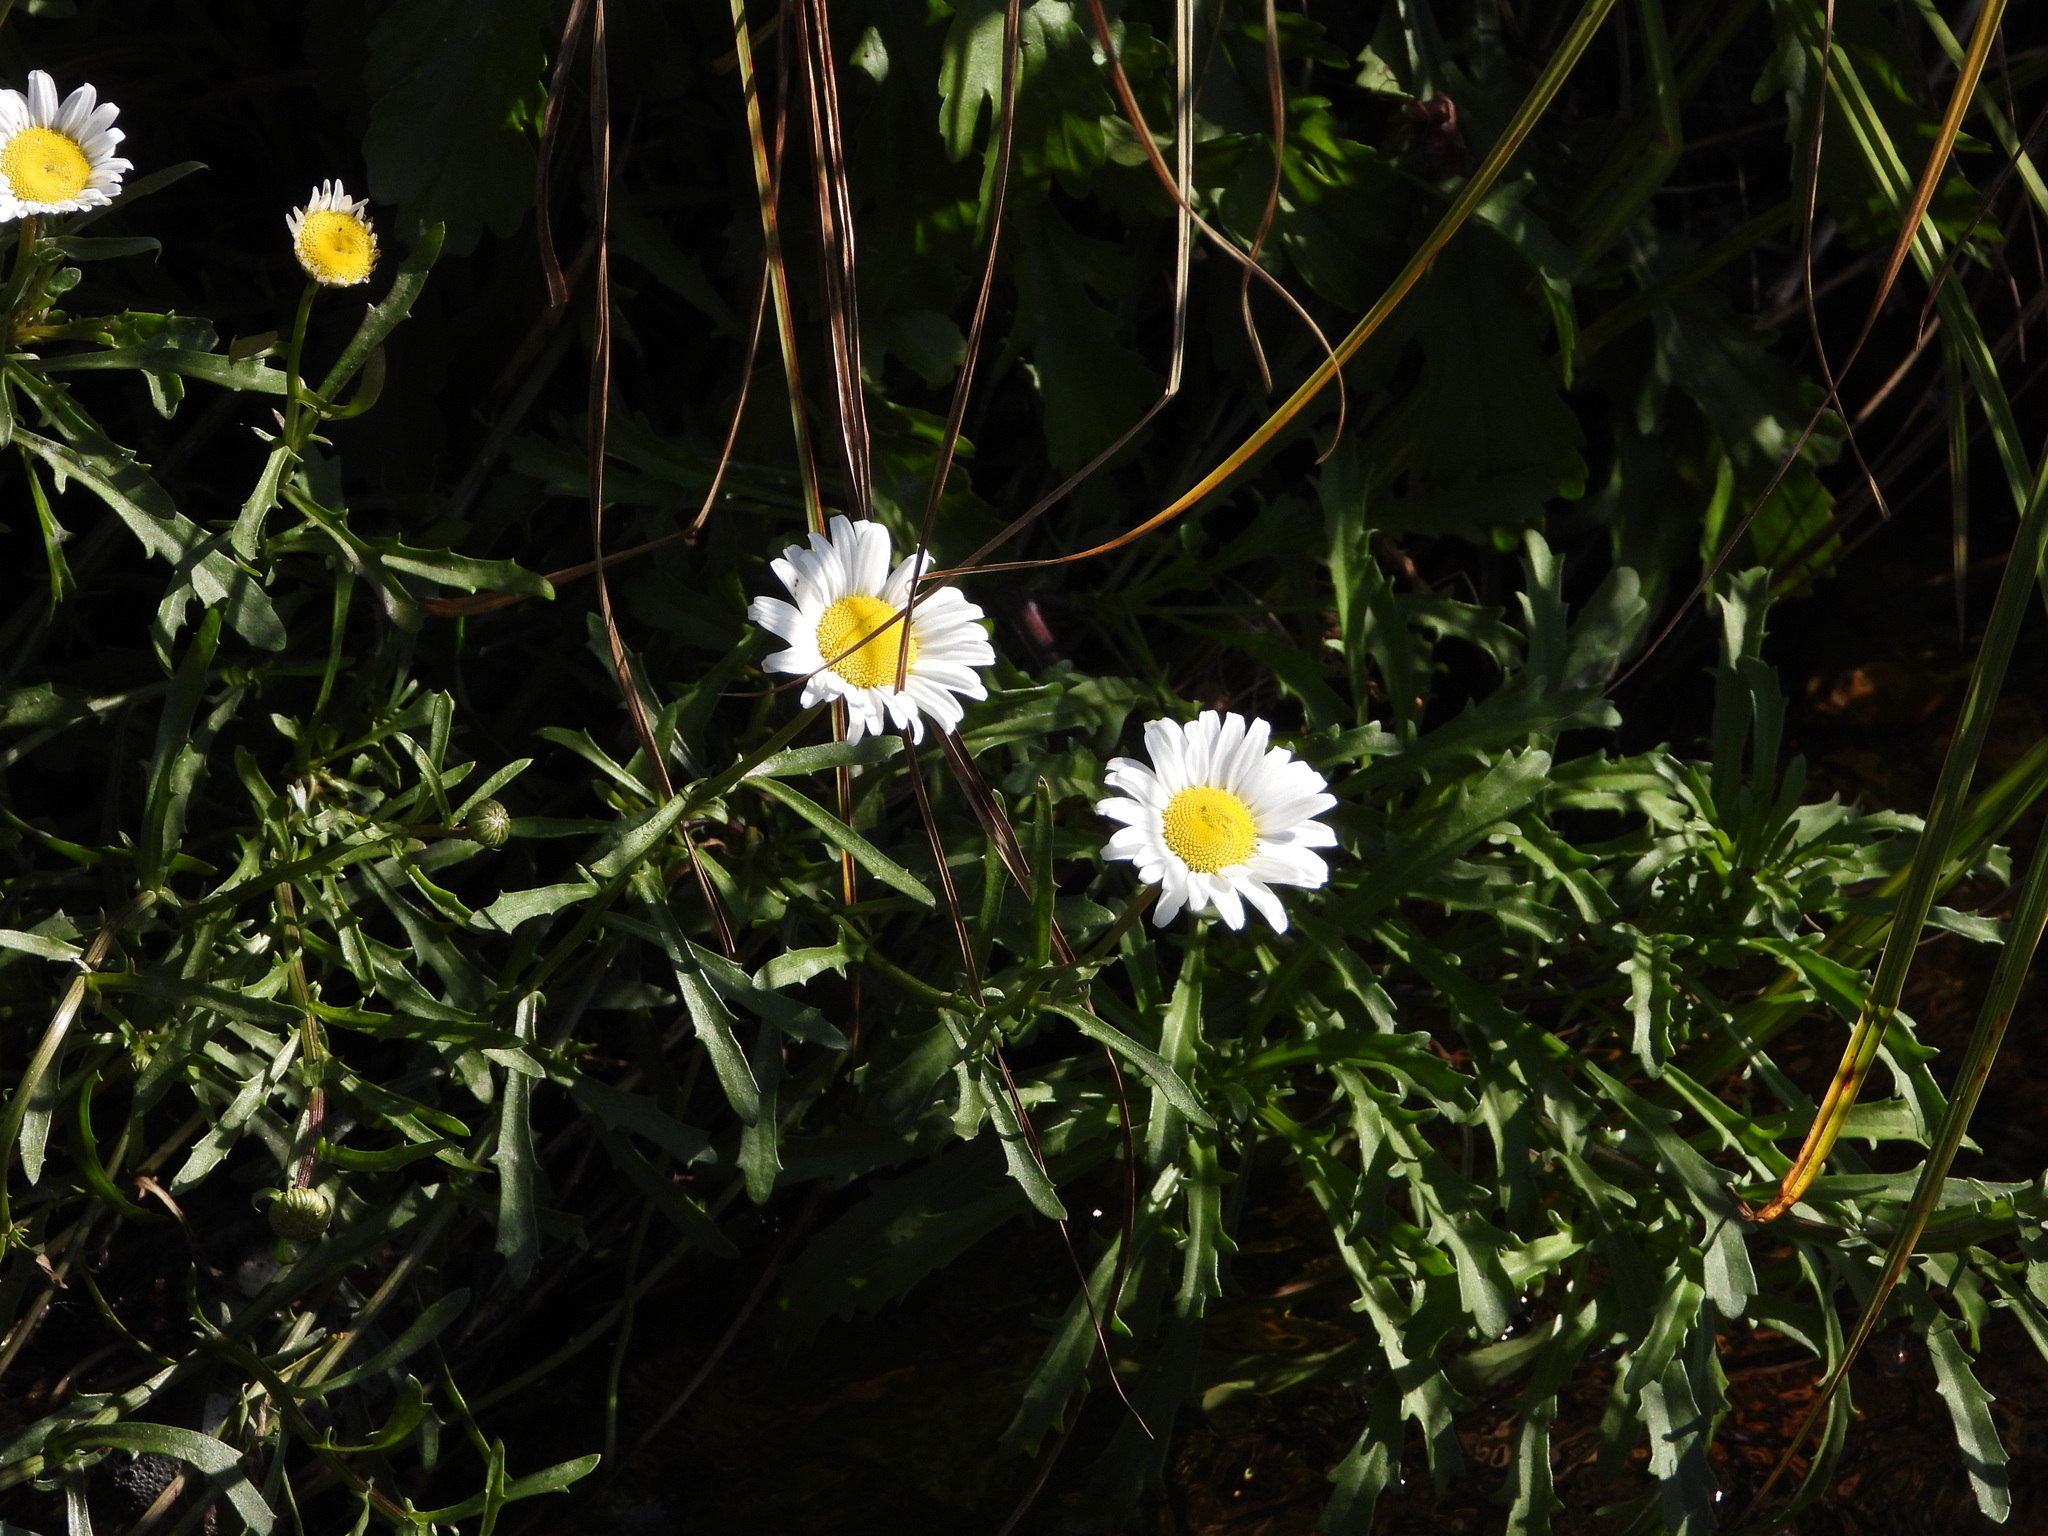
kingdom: Plantae
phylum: Tracheophyta
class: Magnoliopsida
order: Asterales
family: Asteraceae
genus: Leucanthemum
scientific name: Leucanthemum vulgare
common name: Oxeye daisy
